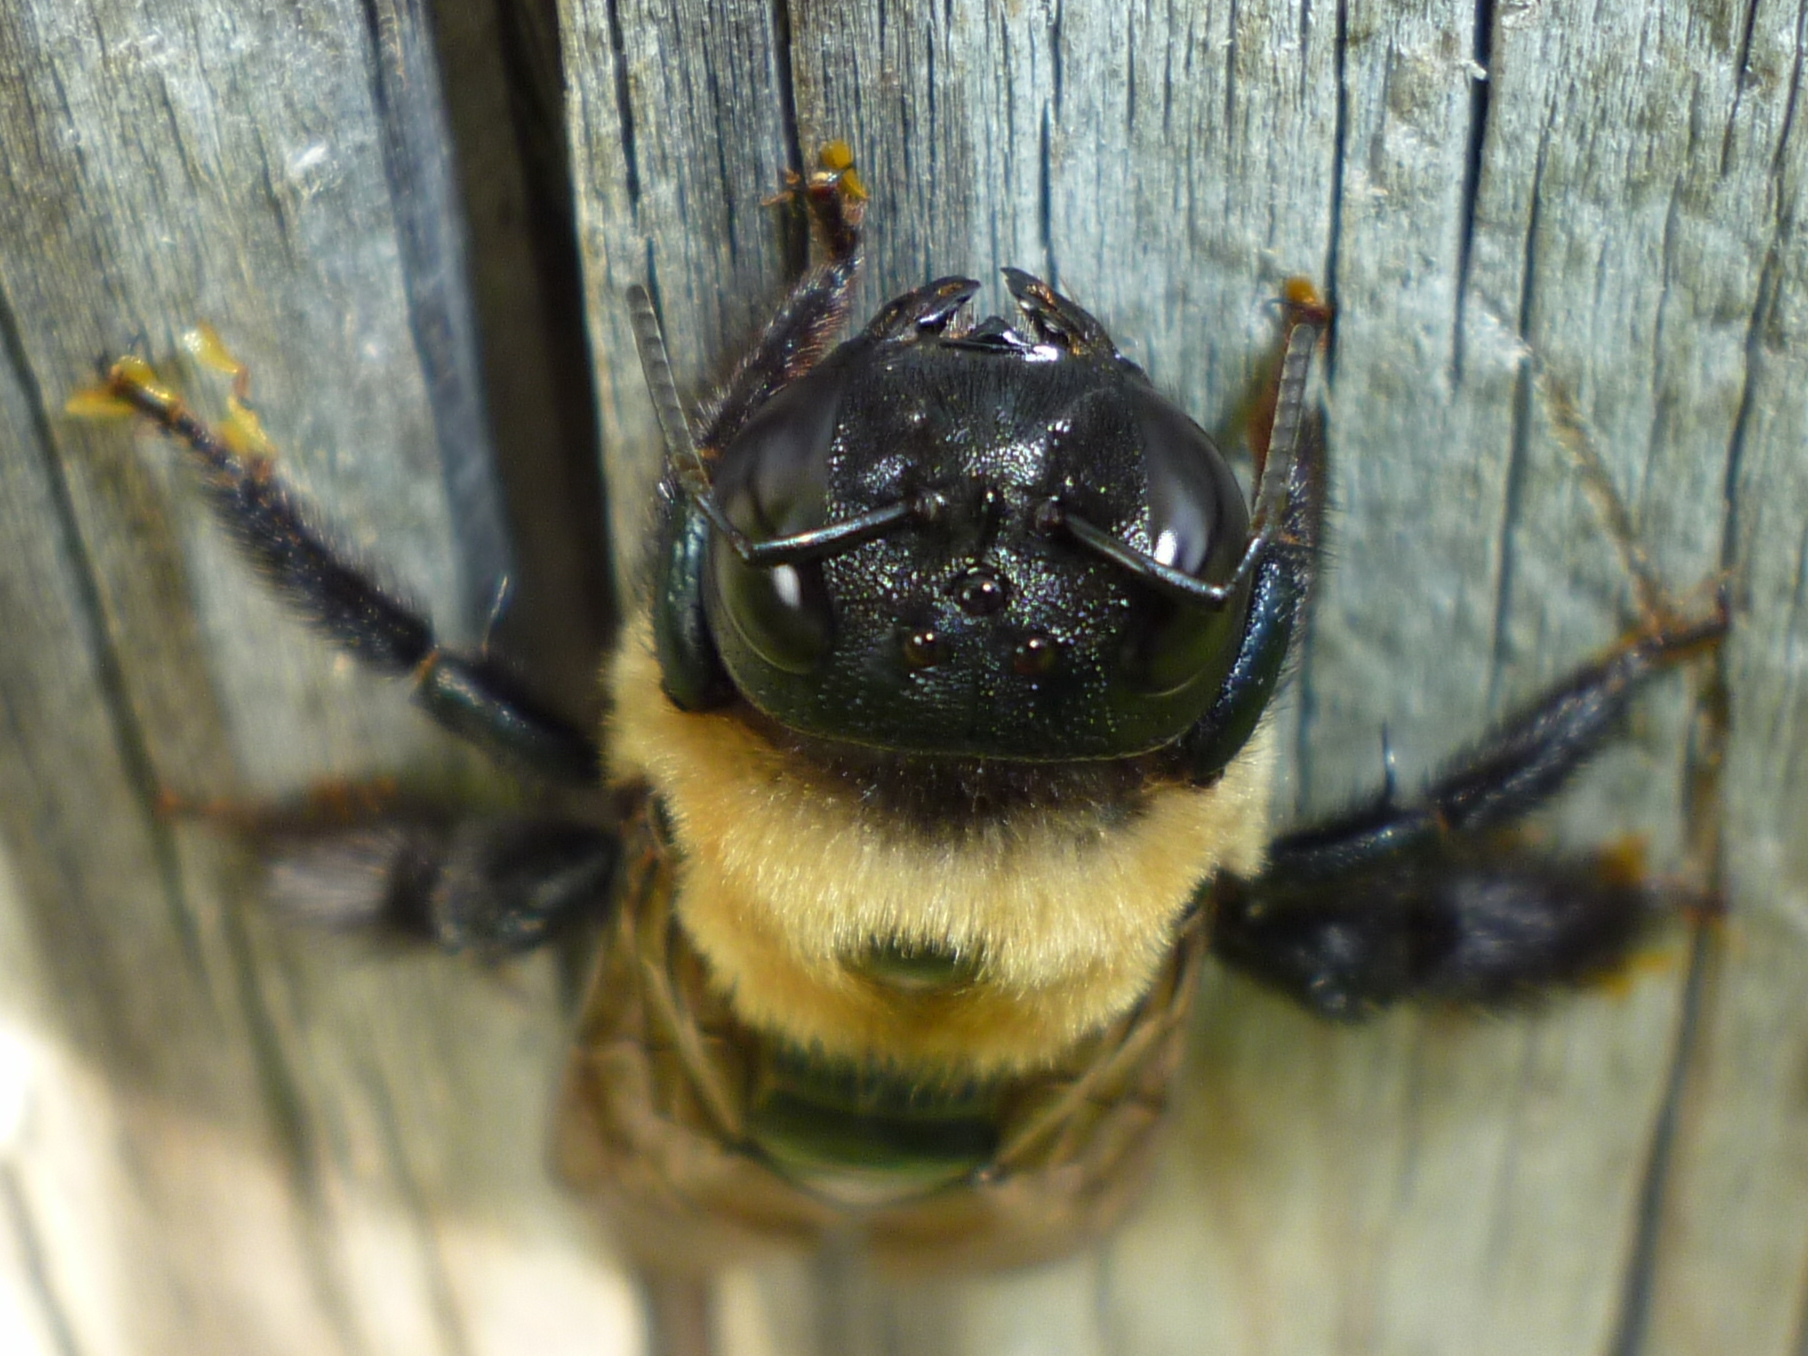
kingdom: Animalia
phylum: Arthropoda
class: Insecta
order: Hymenoptera
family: Apidae
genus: Xylocopa
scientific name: Xylocopa virginica
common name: Carpenter bee
